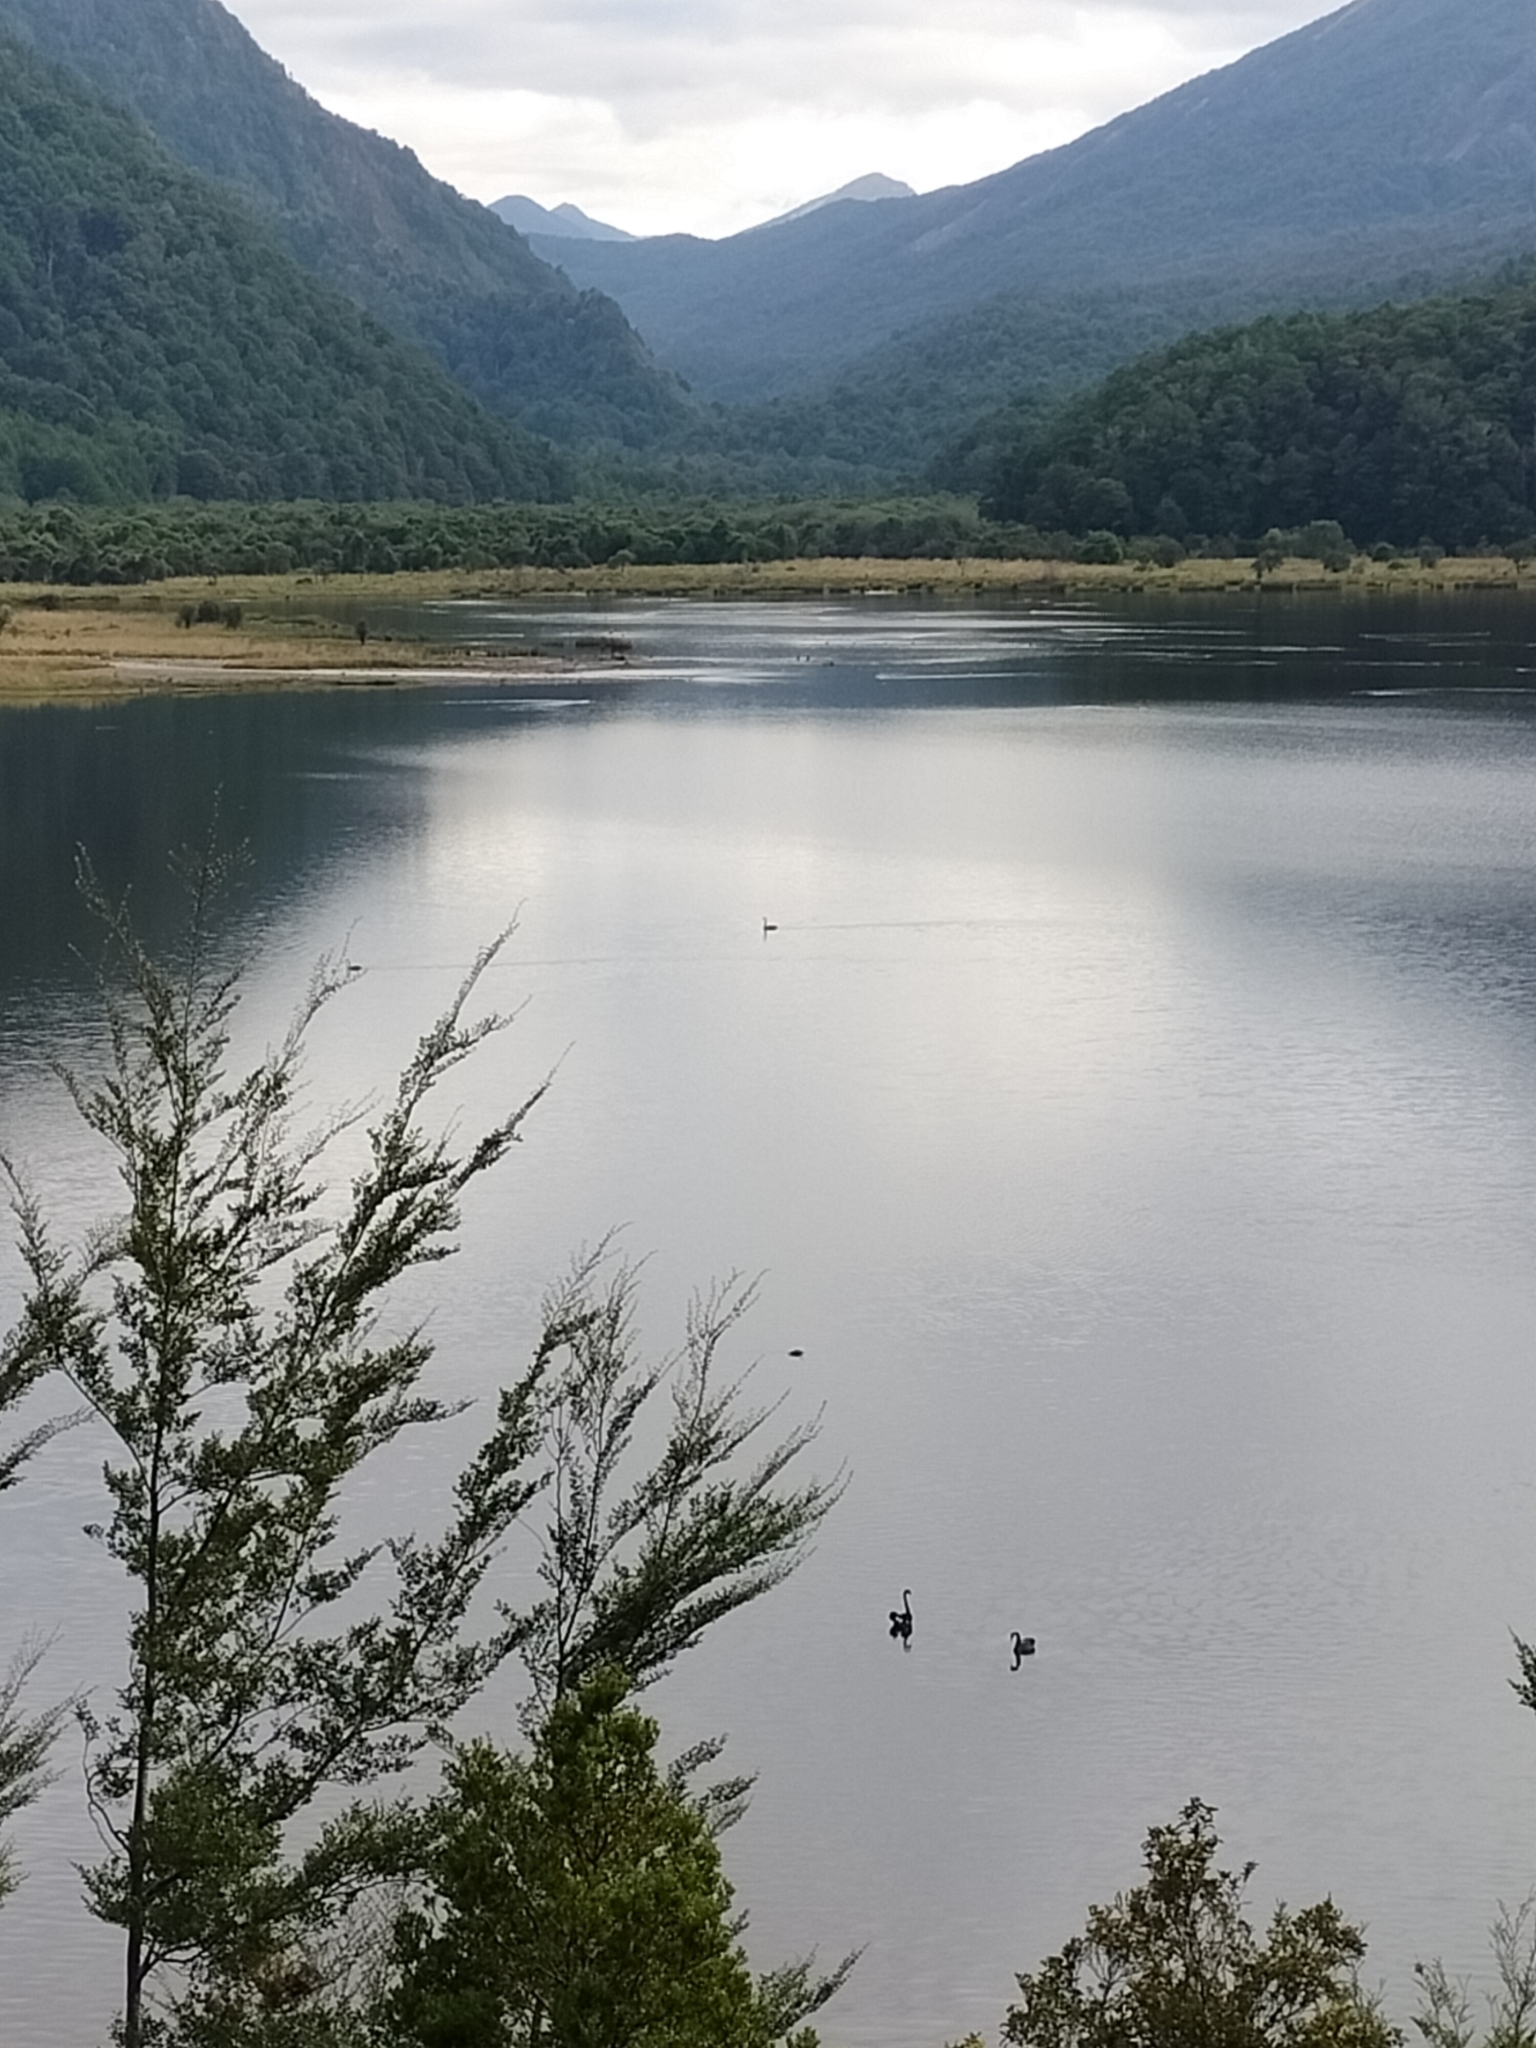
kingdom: Animalia
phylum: Chordata
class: Aves
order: Anseriformes
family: Anatidae
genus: Cygnus
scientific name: Cygnus atratus
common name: Black swan
